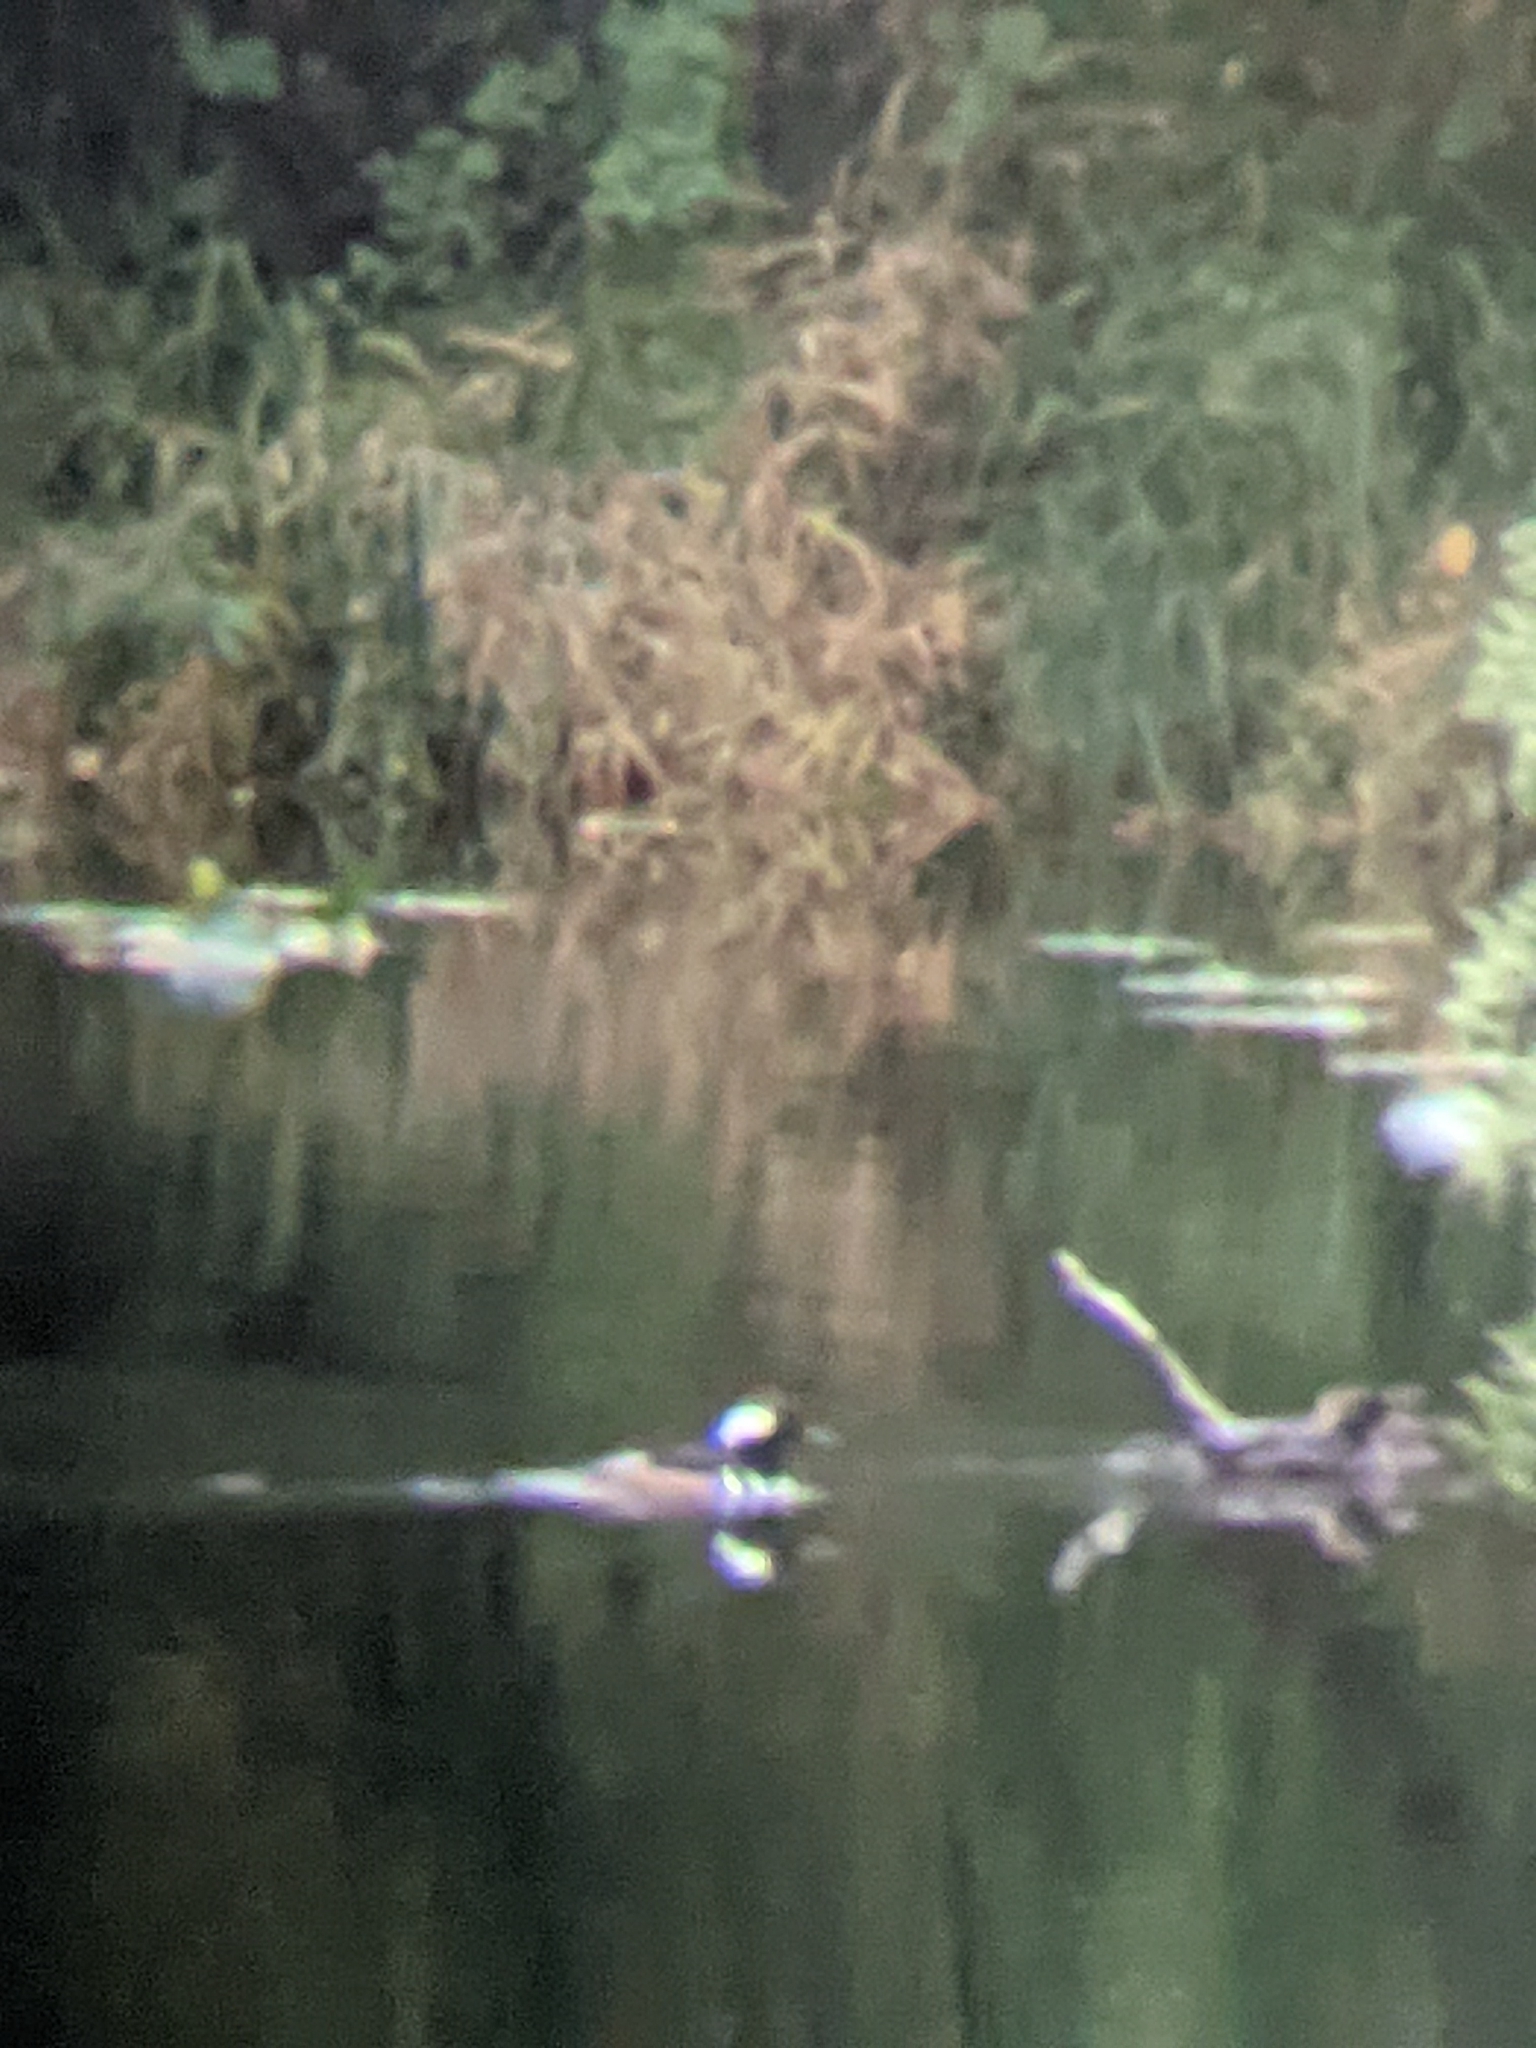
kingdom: Animalia
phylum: Chordata
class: Aves
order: Anseriformes
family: Anatidae
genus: Lophodytes
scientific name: Lophodytes cucullatus
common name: Hooded merganser
